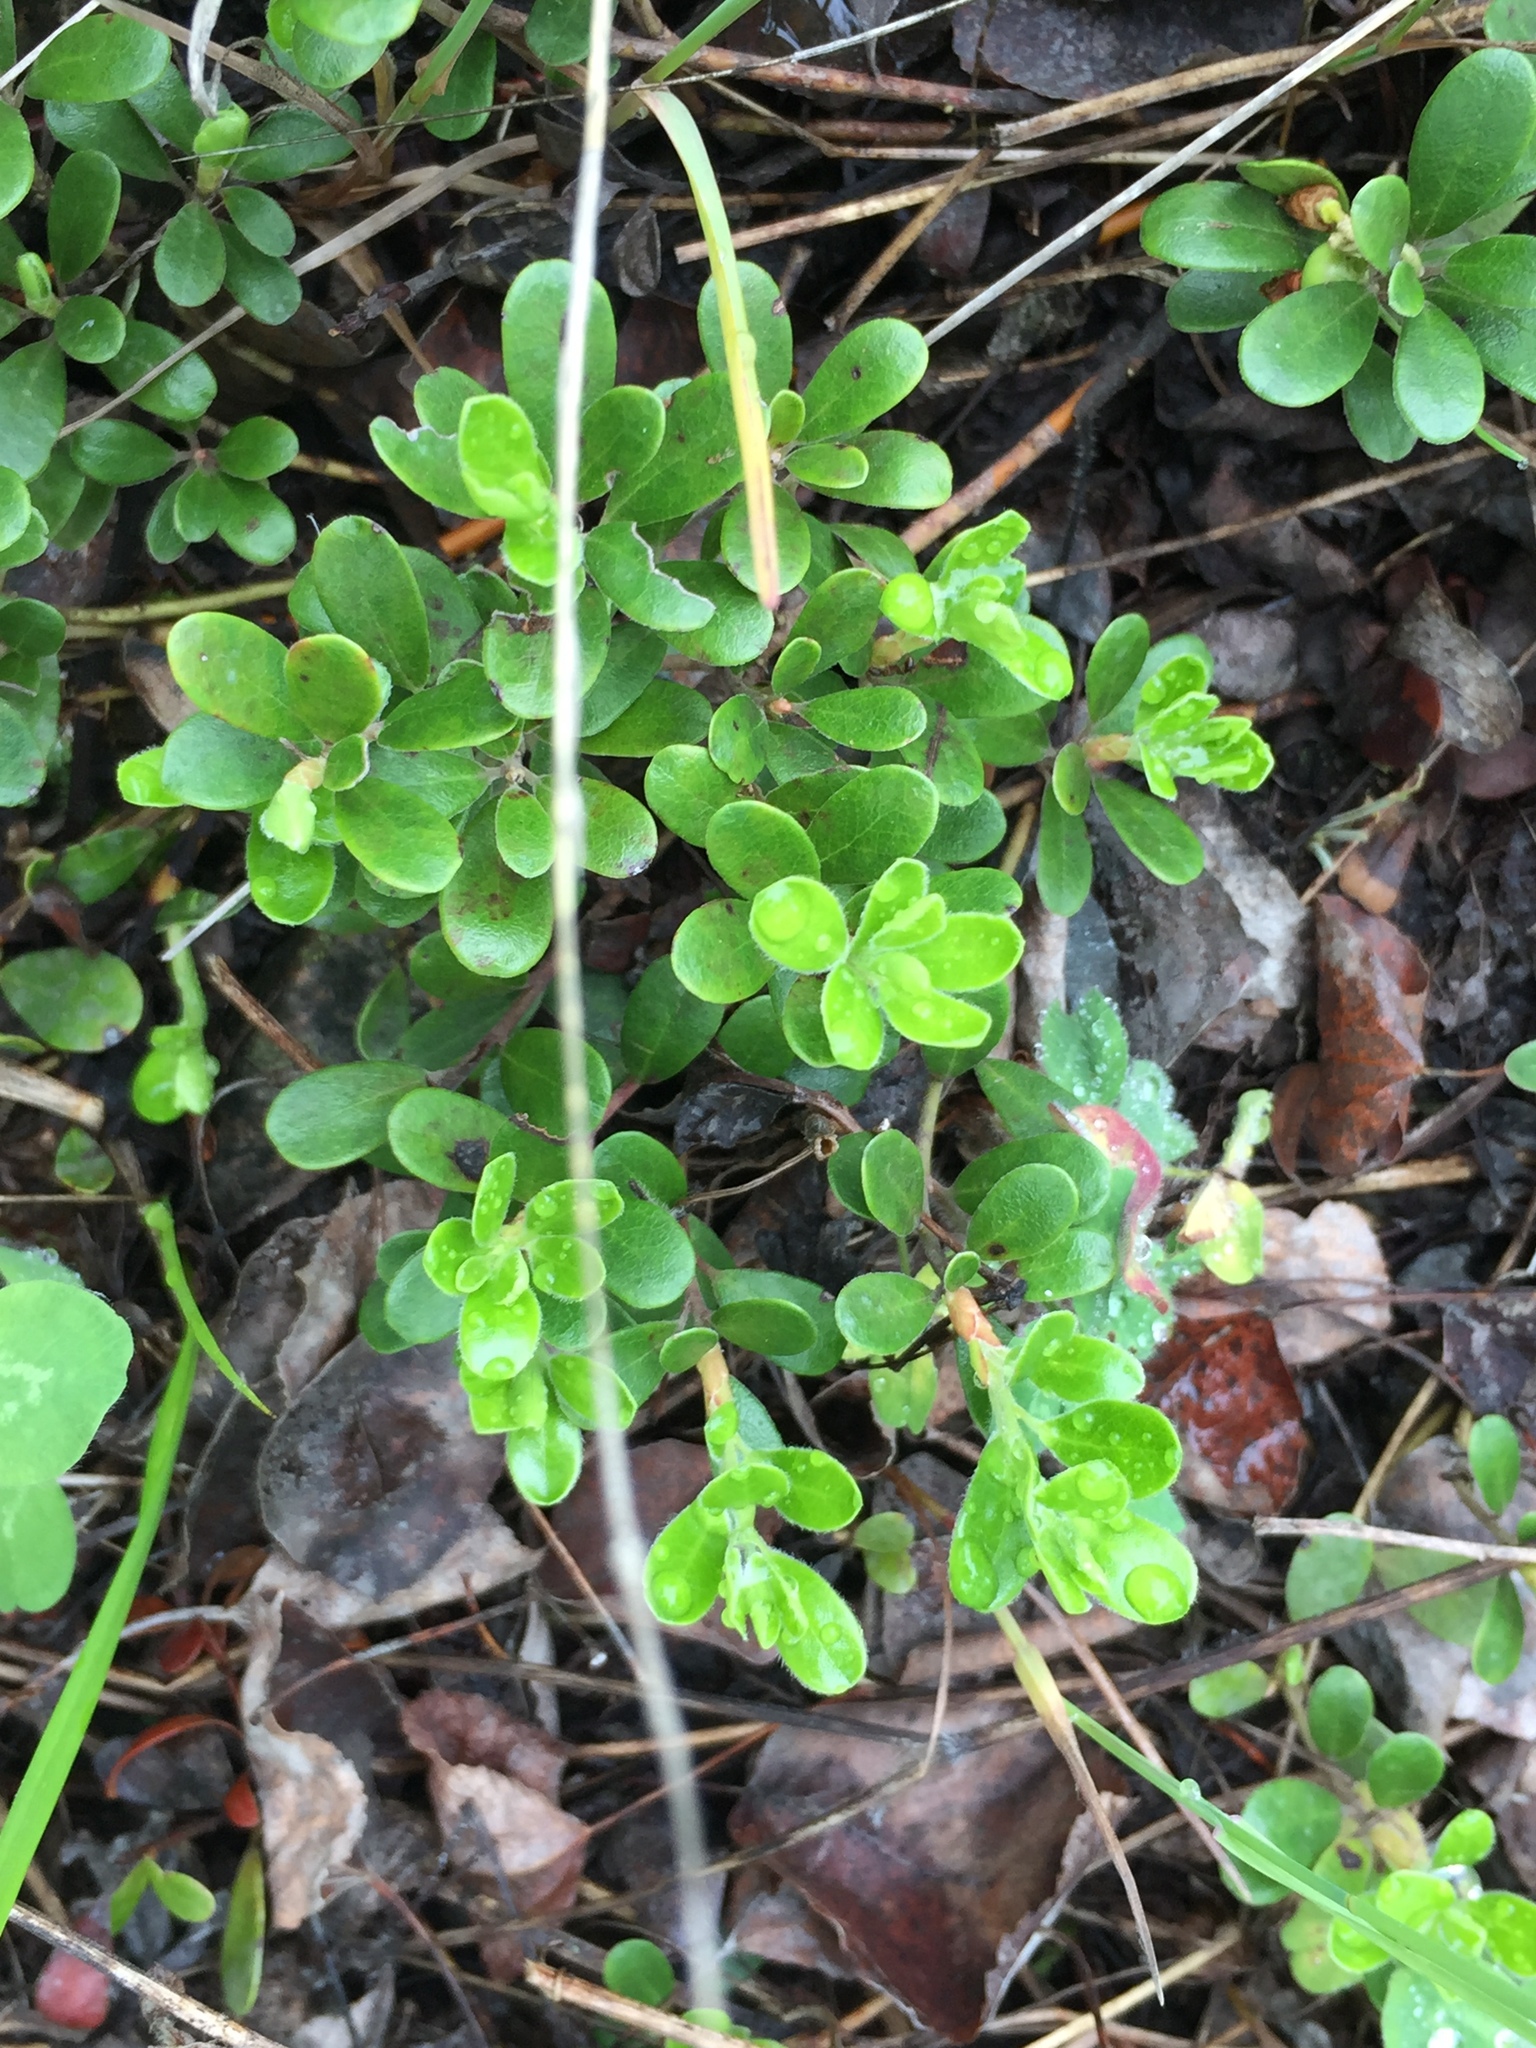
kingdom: Plantae
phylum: Tracheophyta
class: Magnoliopsida
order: Ericales
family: Ericaceae
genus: Arctostaphylos
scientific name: Arctostaphylos uva-ursi
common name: Bearberry
